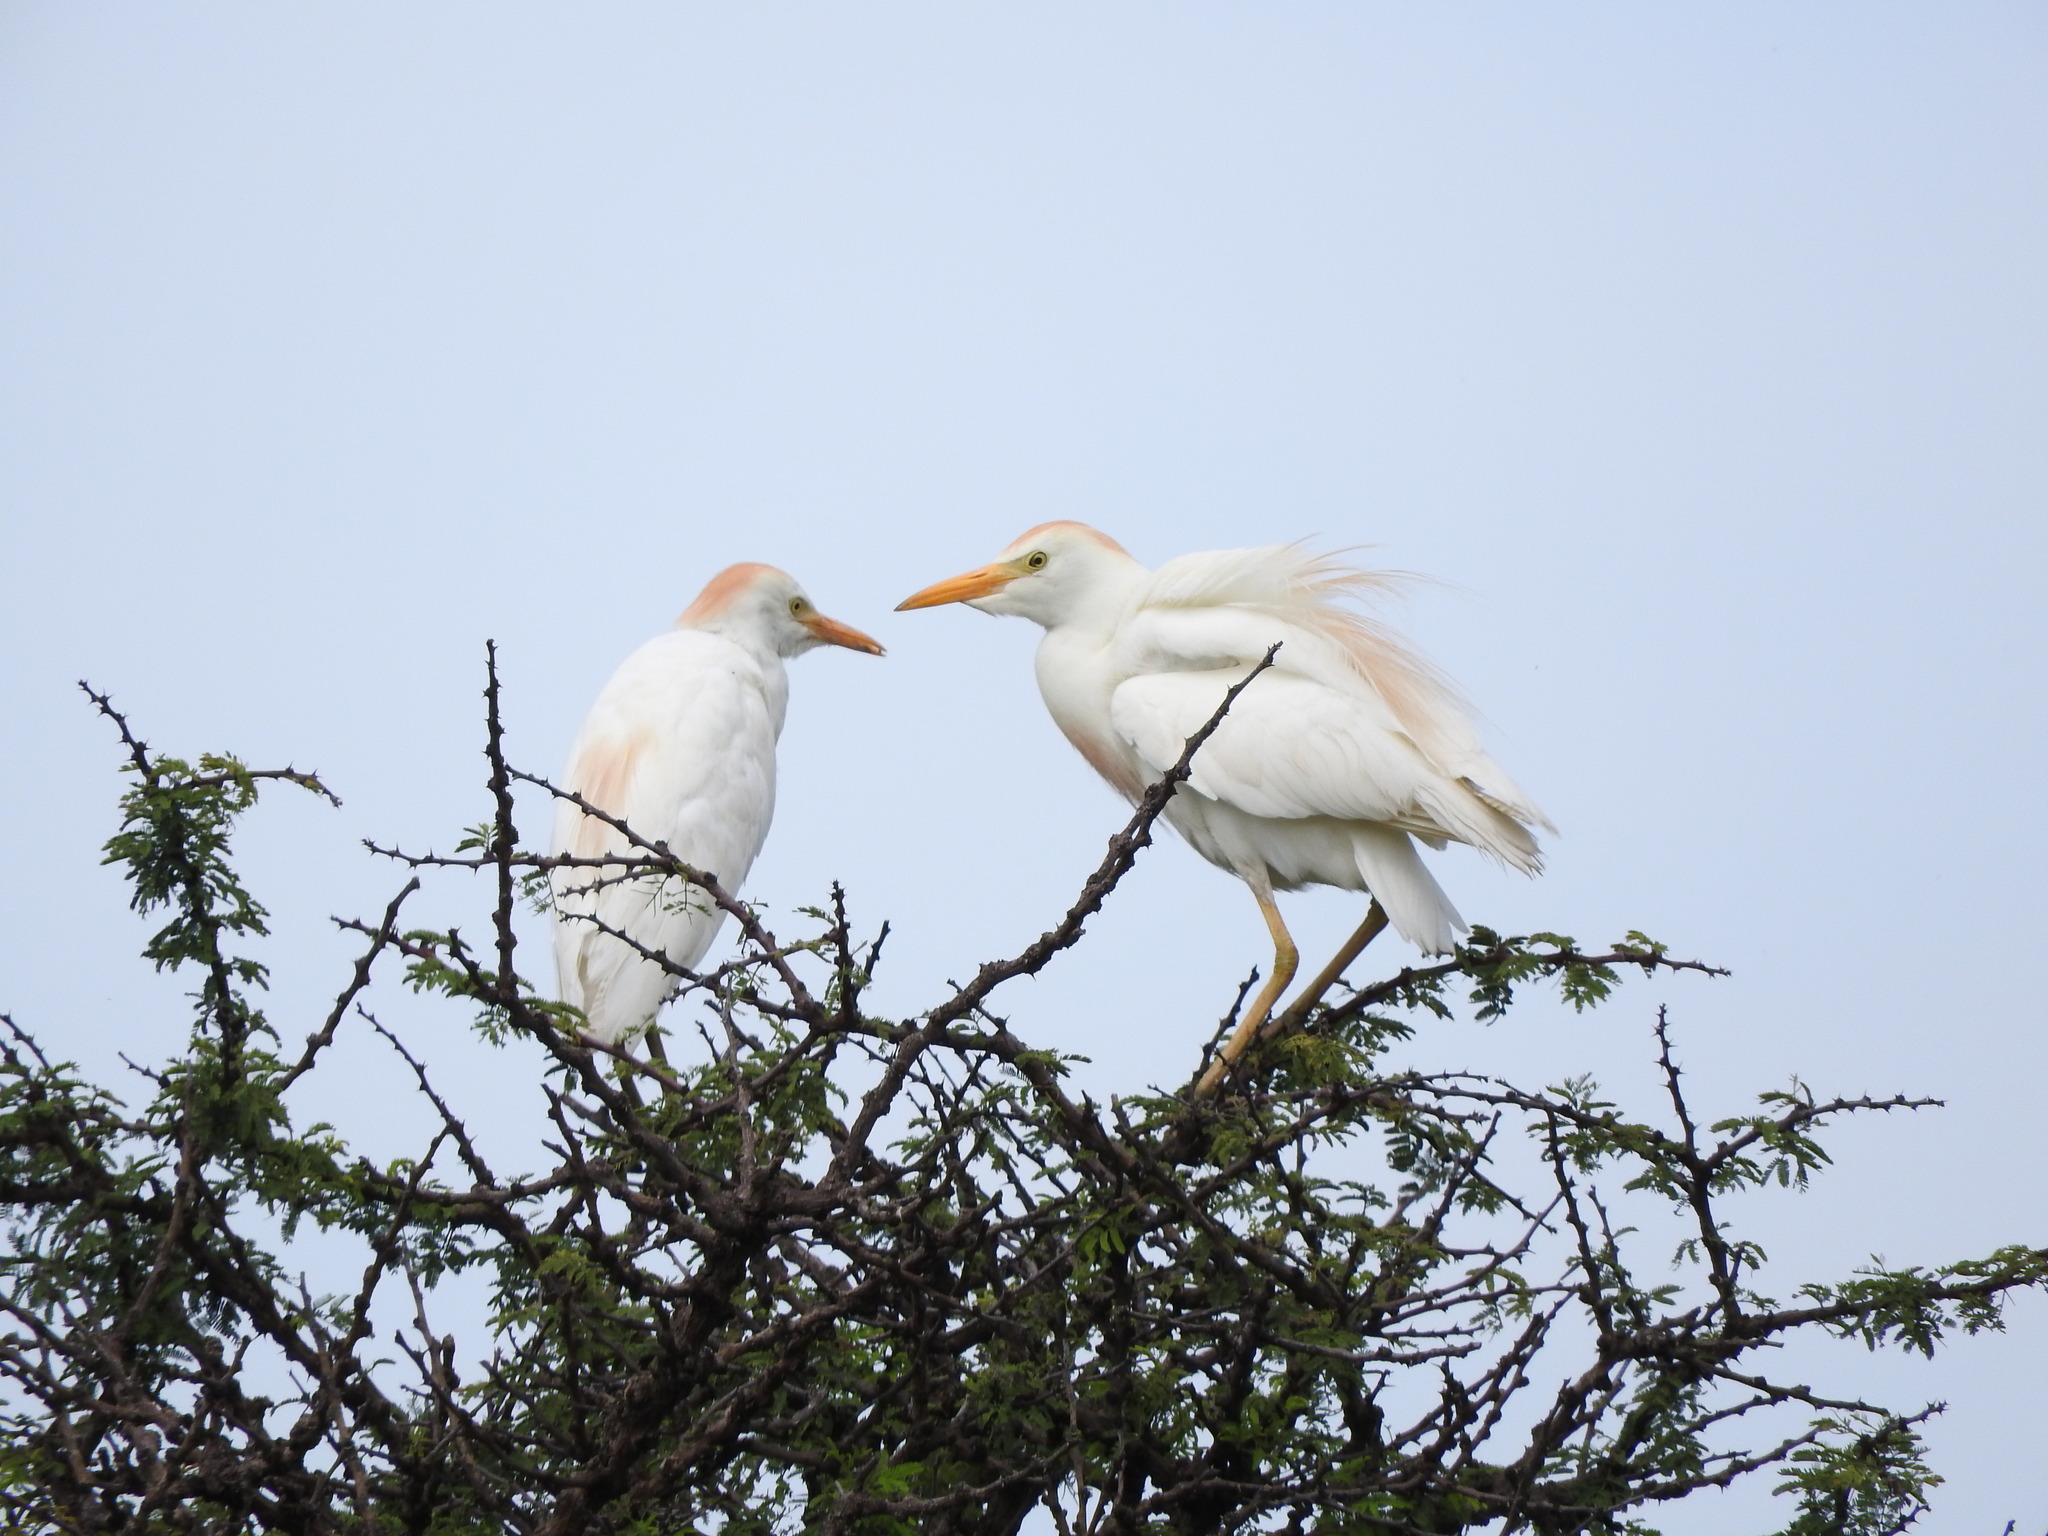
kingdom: Animalia
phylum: Chordata
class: Aves
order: Pelecaniformes
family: Ardeidae
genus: Bubulcus
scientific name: Bubulcus ibis
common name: Cattle egret
